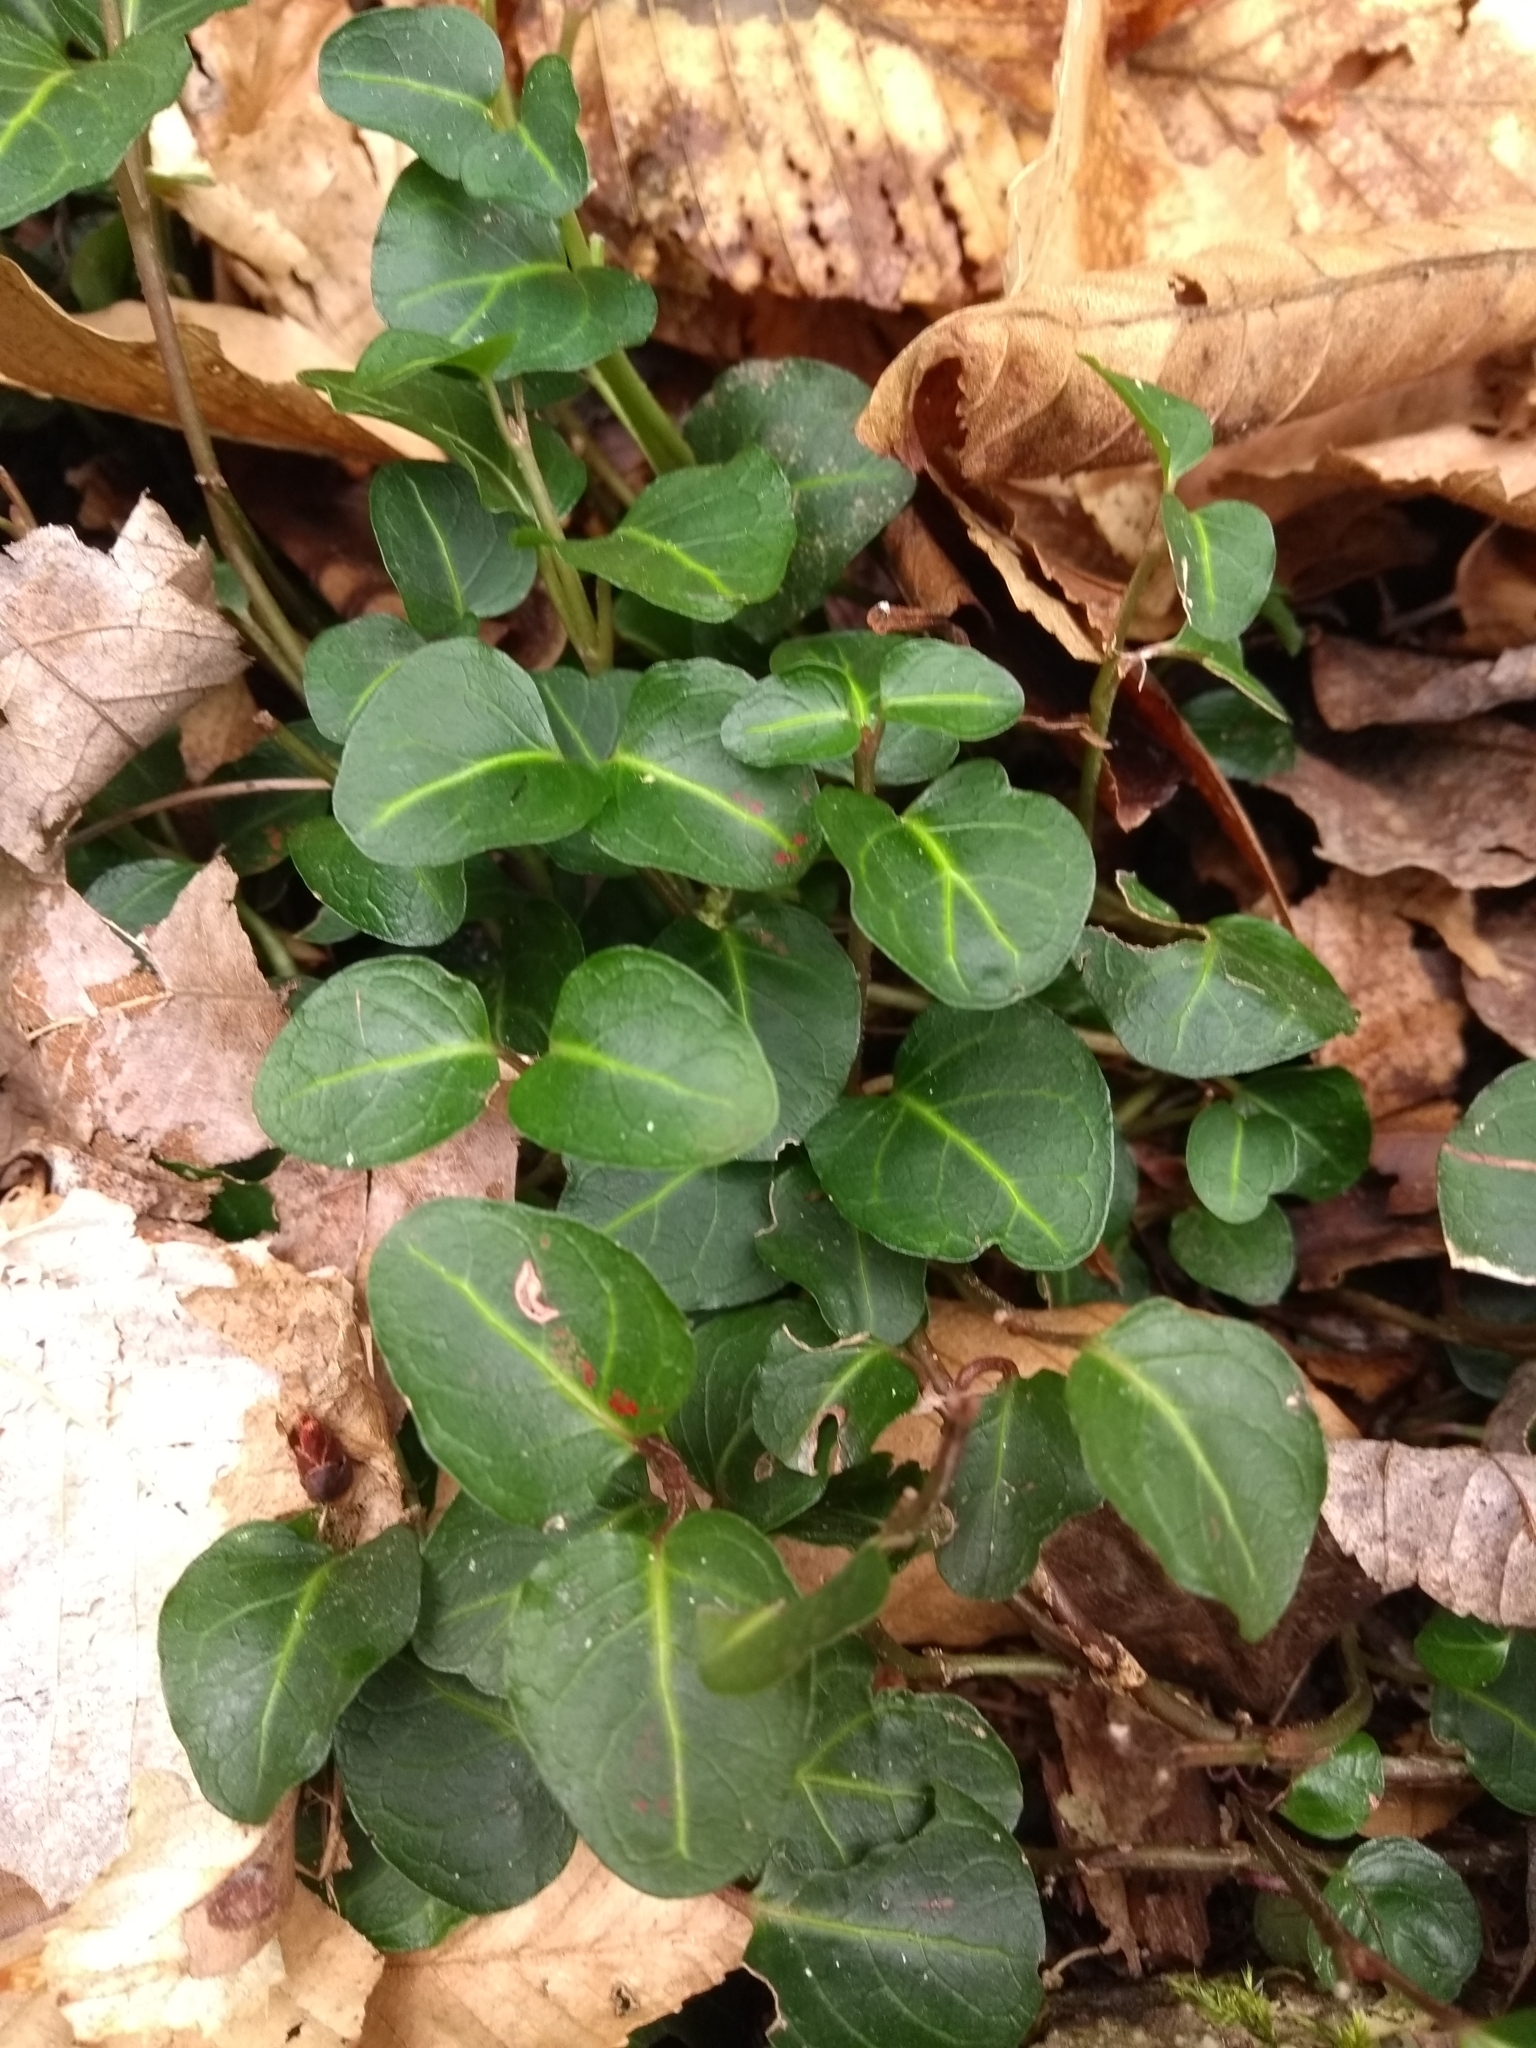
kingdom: Plantae
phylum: Tracheophyta
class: Magnoliopsida
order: Gentianales
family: Rubiaceae
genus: Mitchella
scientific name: Mitchella repens
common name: Partridge-berry
